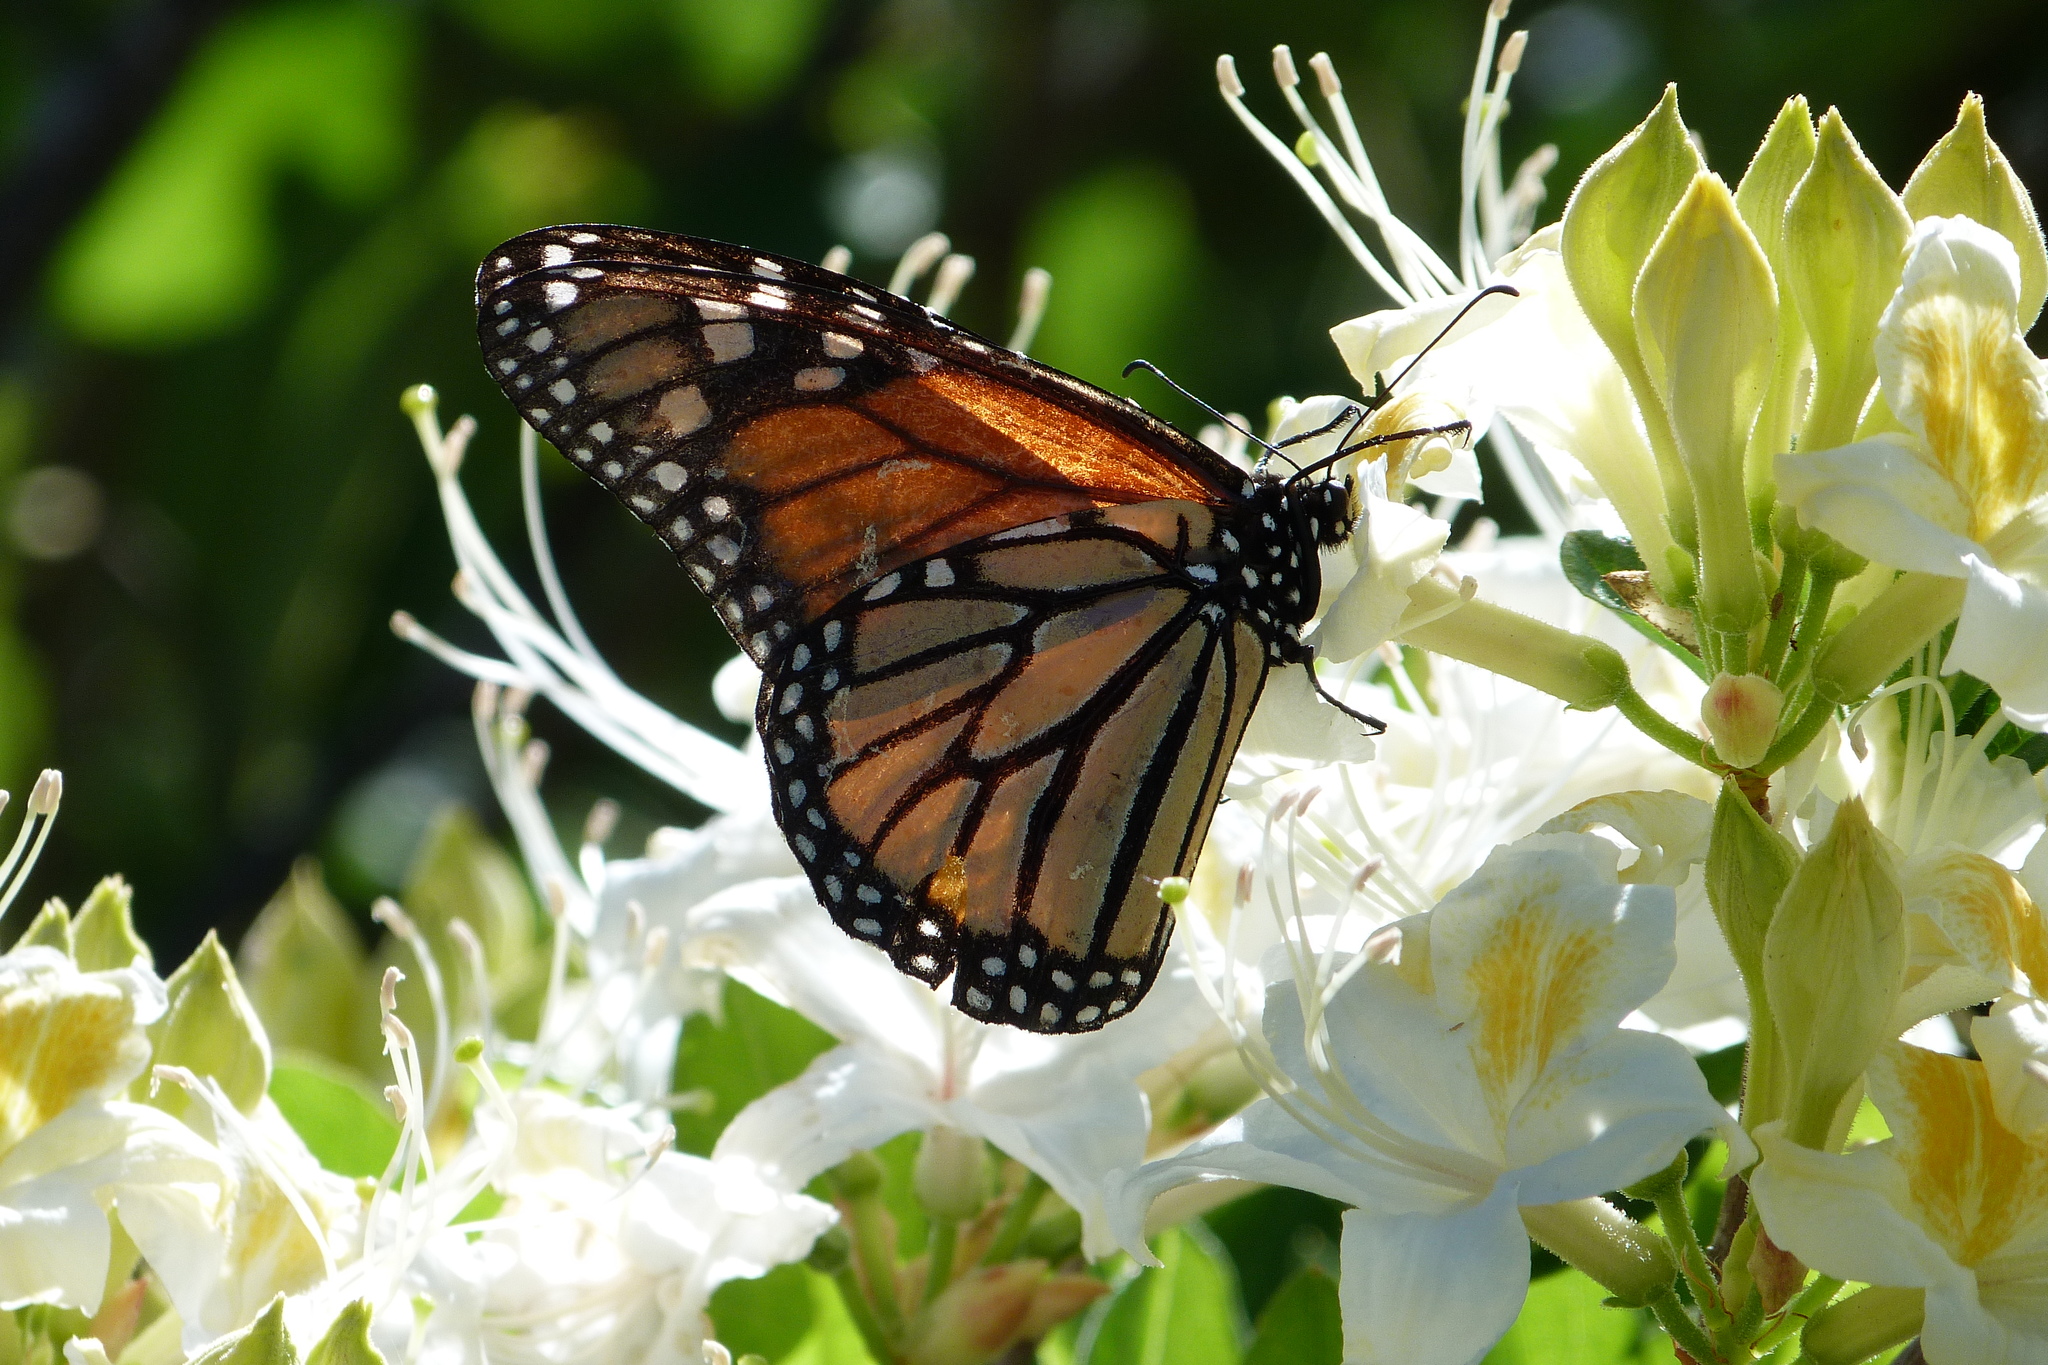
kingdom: Animalia
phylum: Arthropoda
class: Insecta
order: Lepidoptera
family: Nymphalidae
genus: Danaus
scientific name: Danaus plexippus
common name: Monarch
